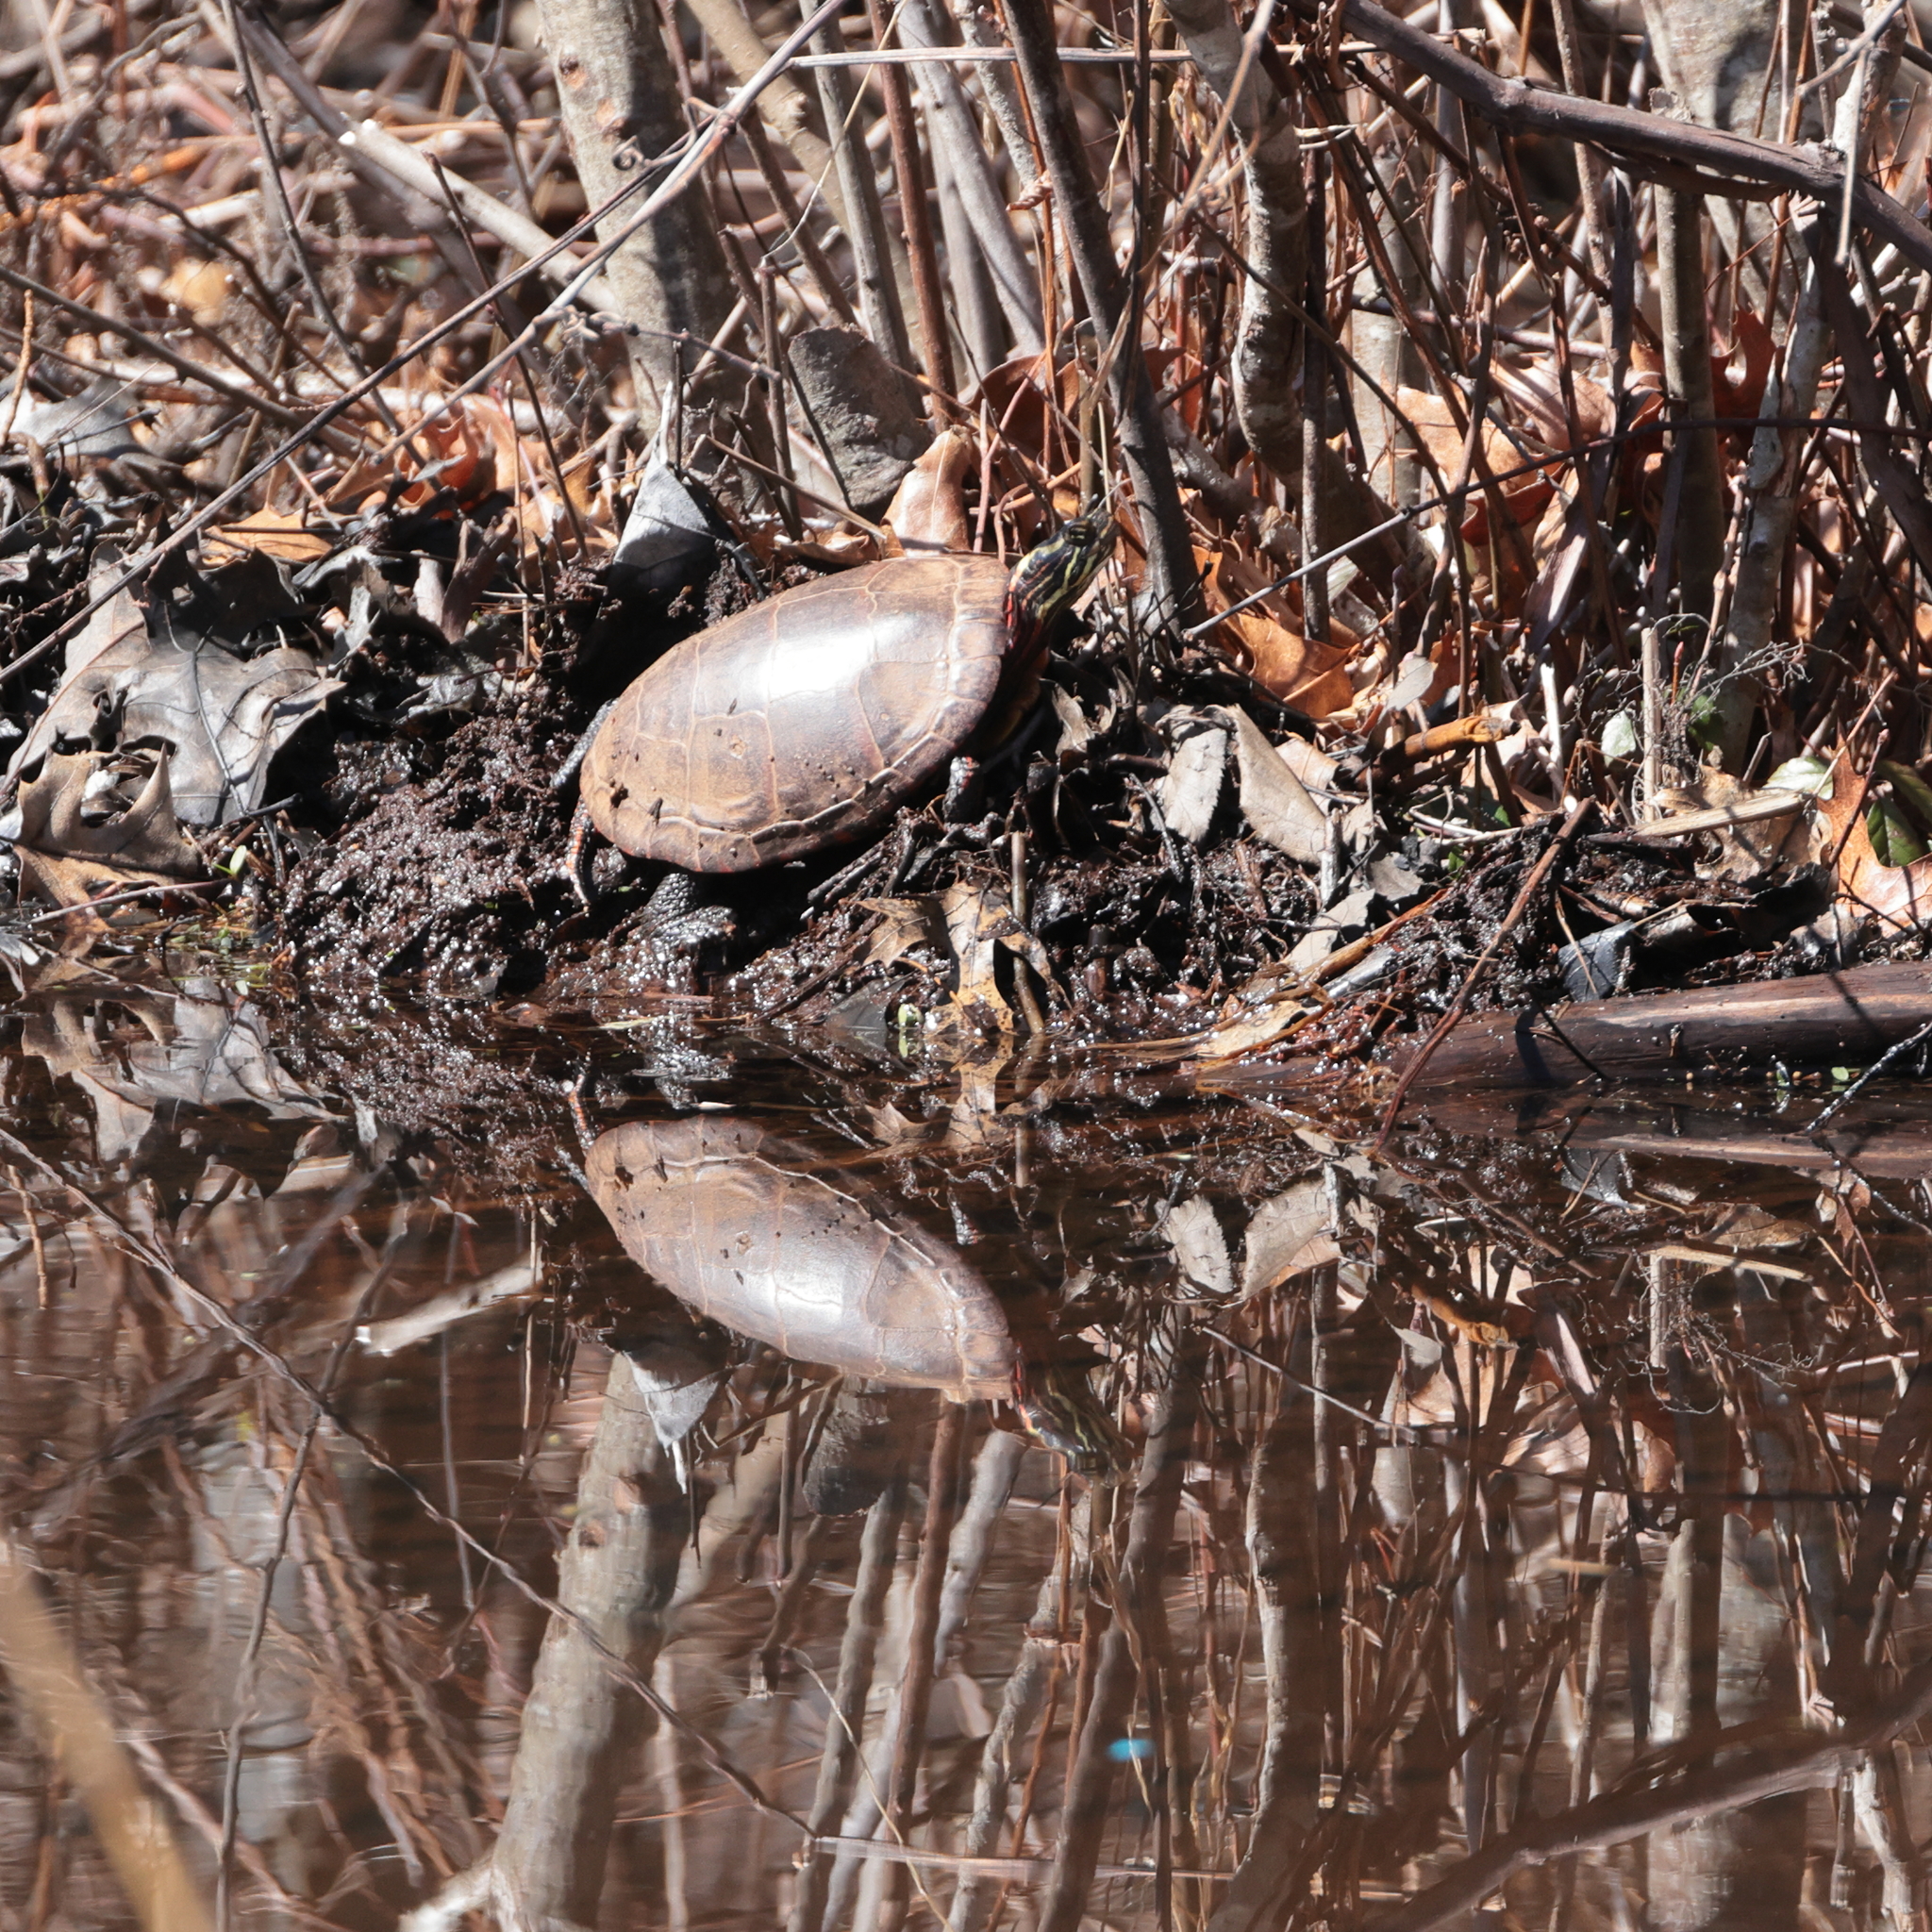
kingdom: Animalia
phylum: Chordata
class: Testudines
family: Emydidae
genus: Chrysemys
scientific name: Chrysemys picta
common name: Painted turtle
